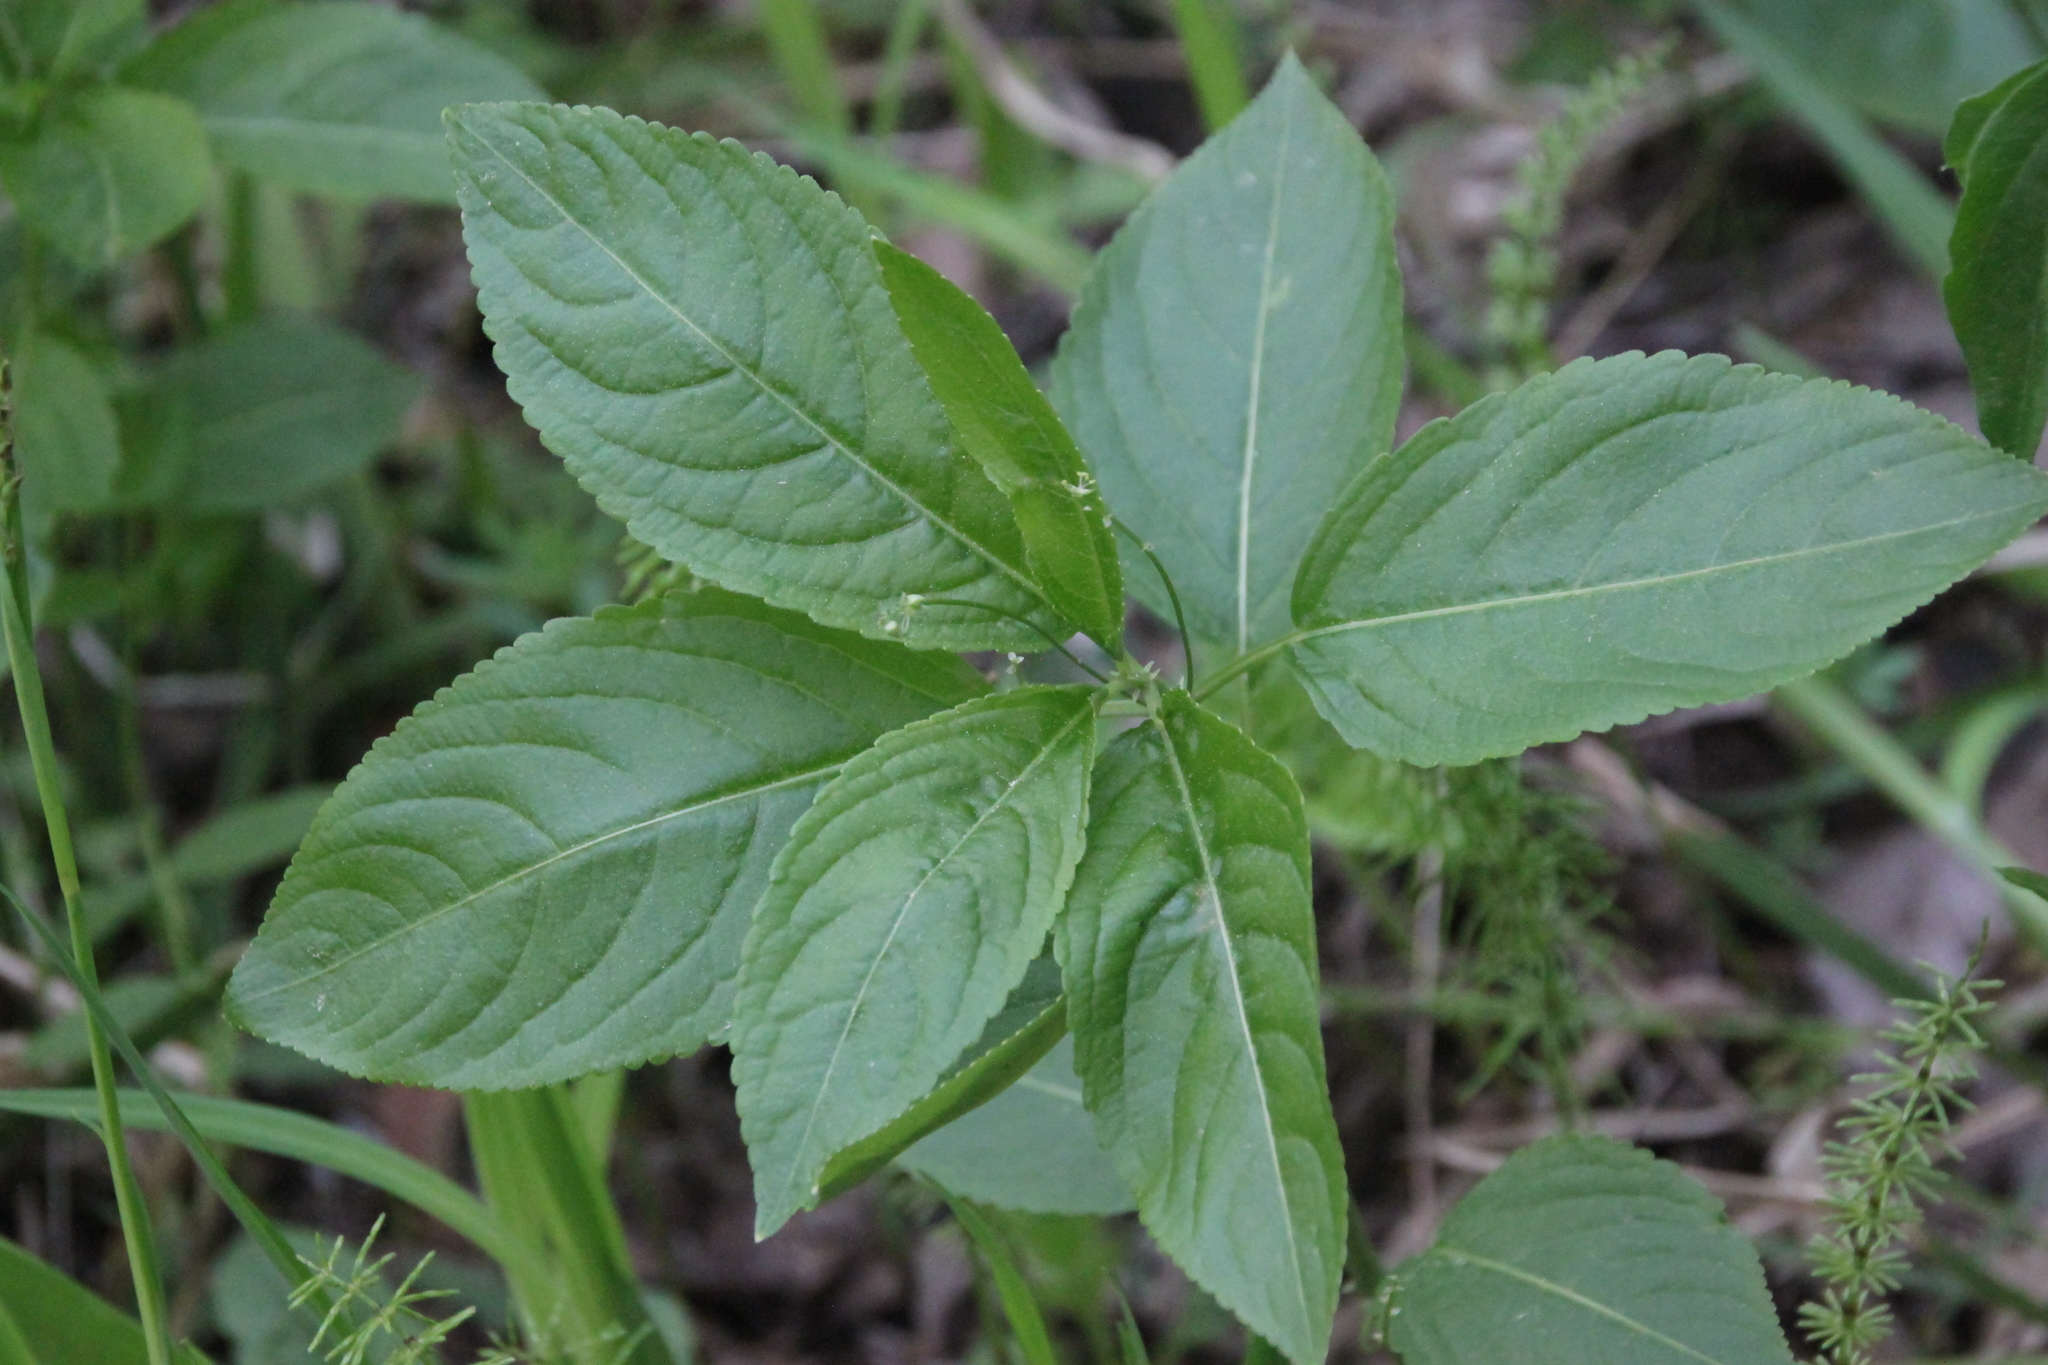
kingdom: Plantae
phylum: Tracheophyta
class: Magnoliopsida
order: Malpighiales
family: Euphorbiaceae
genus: Mercurialis
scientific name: Mercurialis perennis
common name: Dog mercury
